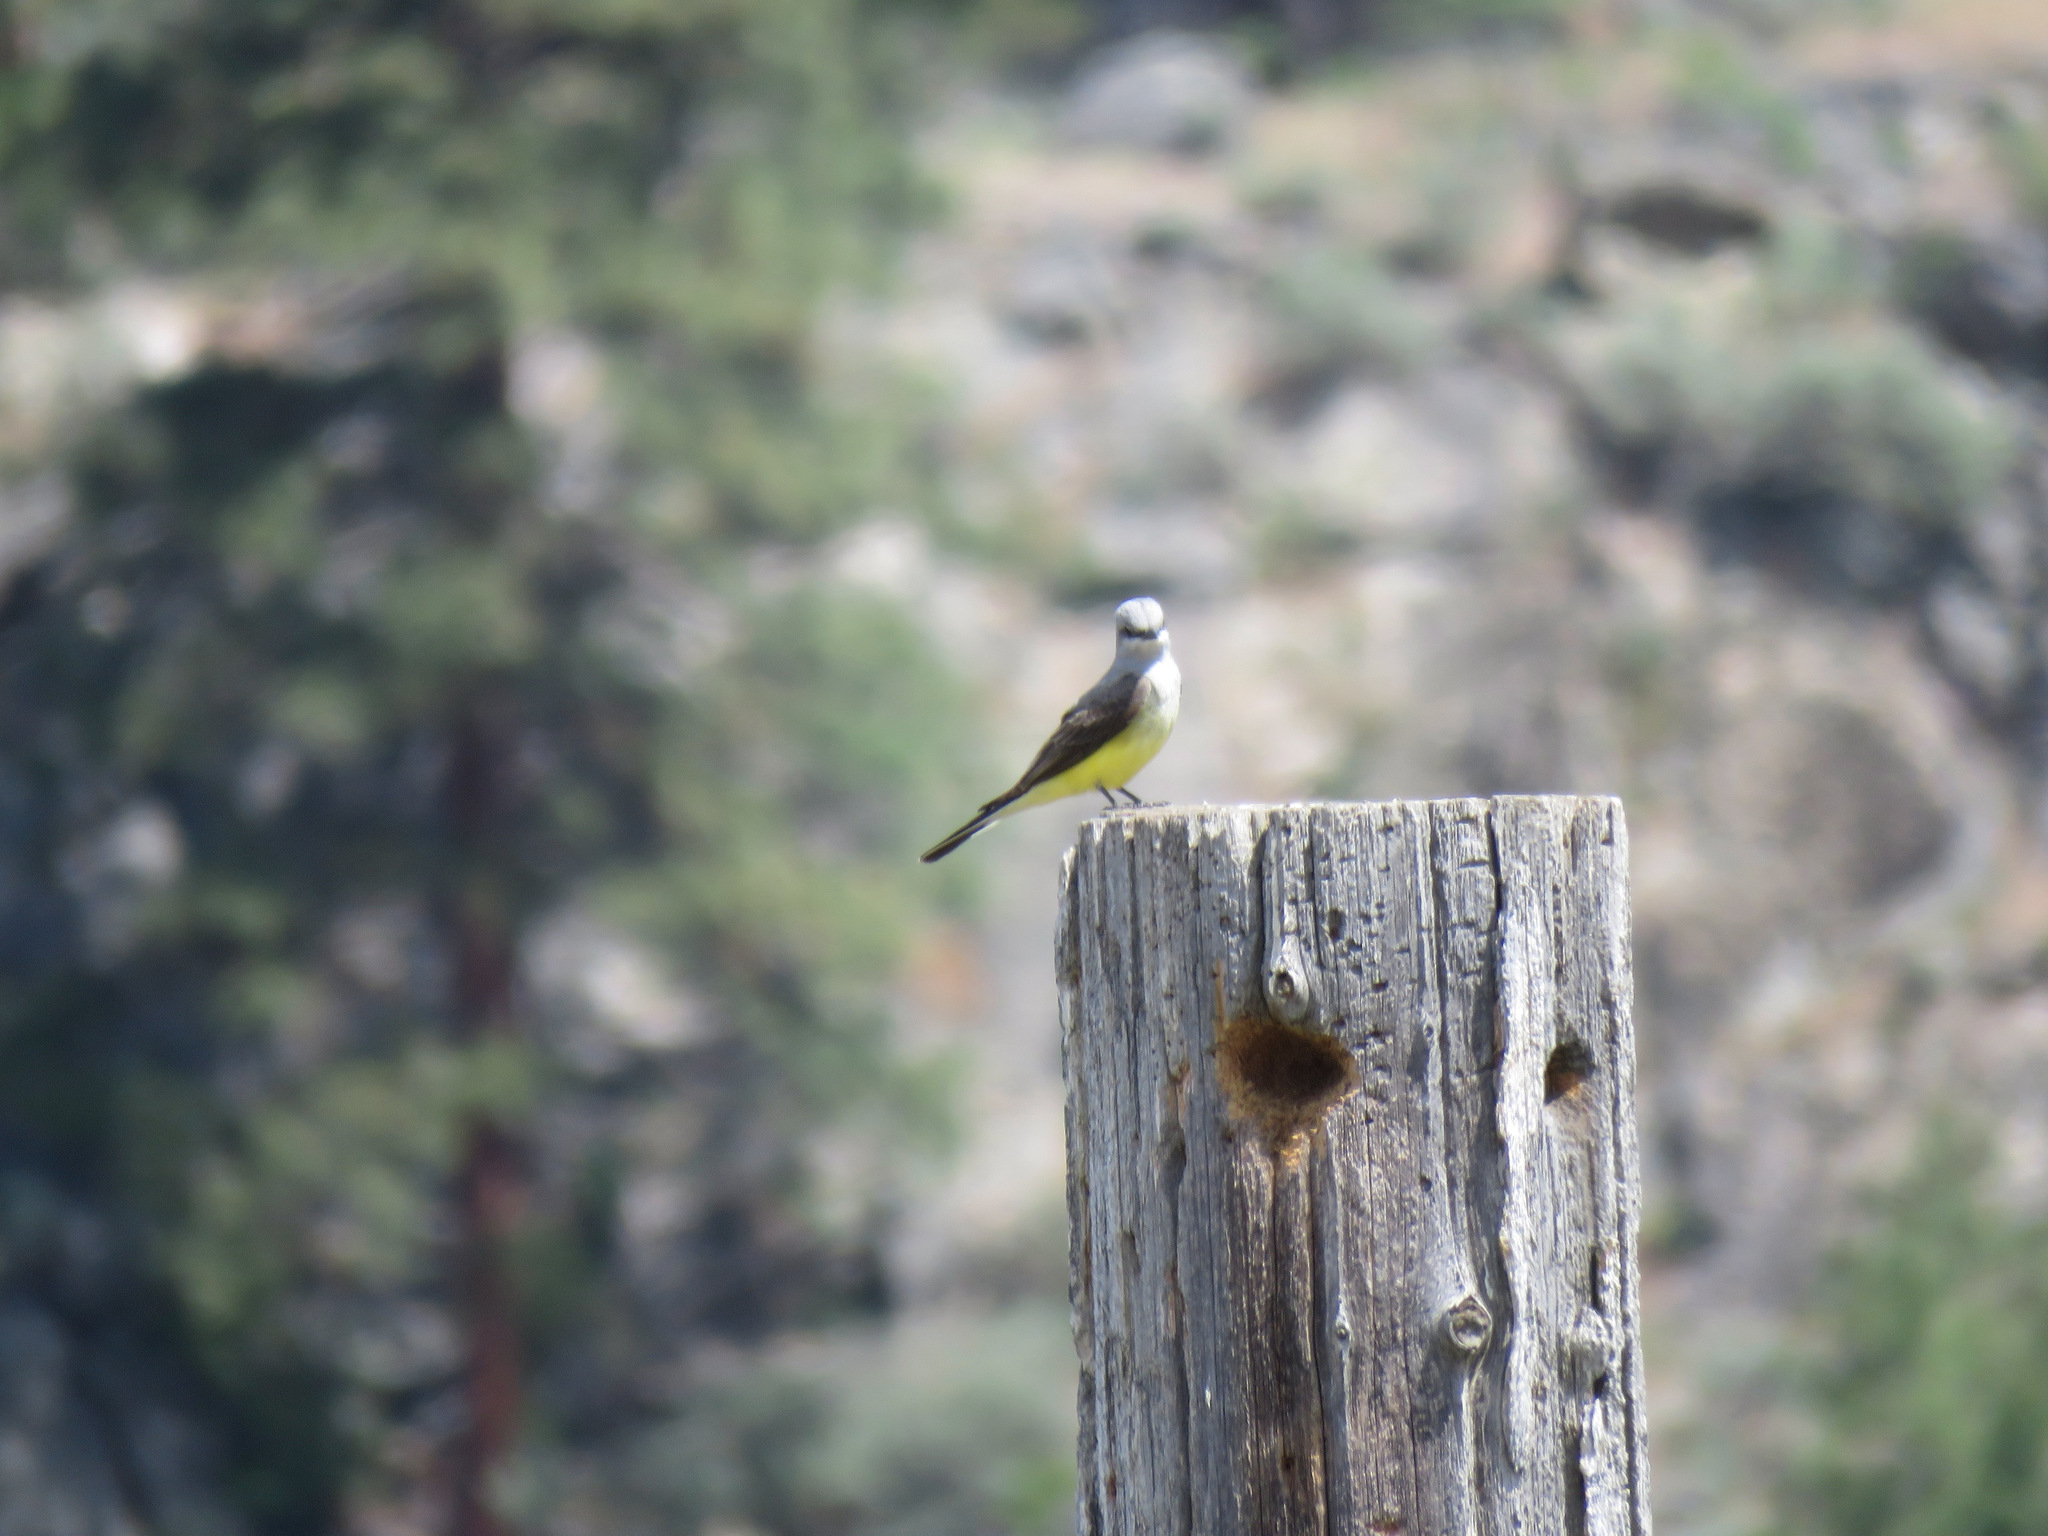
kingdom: Animalia
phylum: Chordata
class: Aves
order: Passeriformes
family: Tyrannidae
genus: Tyrannus
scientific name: Tyrannus verticalis
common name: Western kingbird
